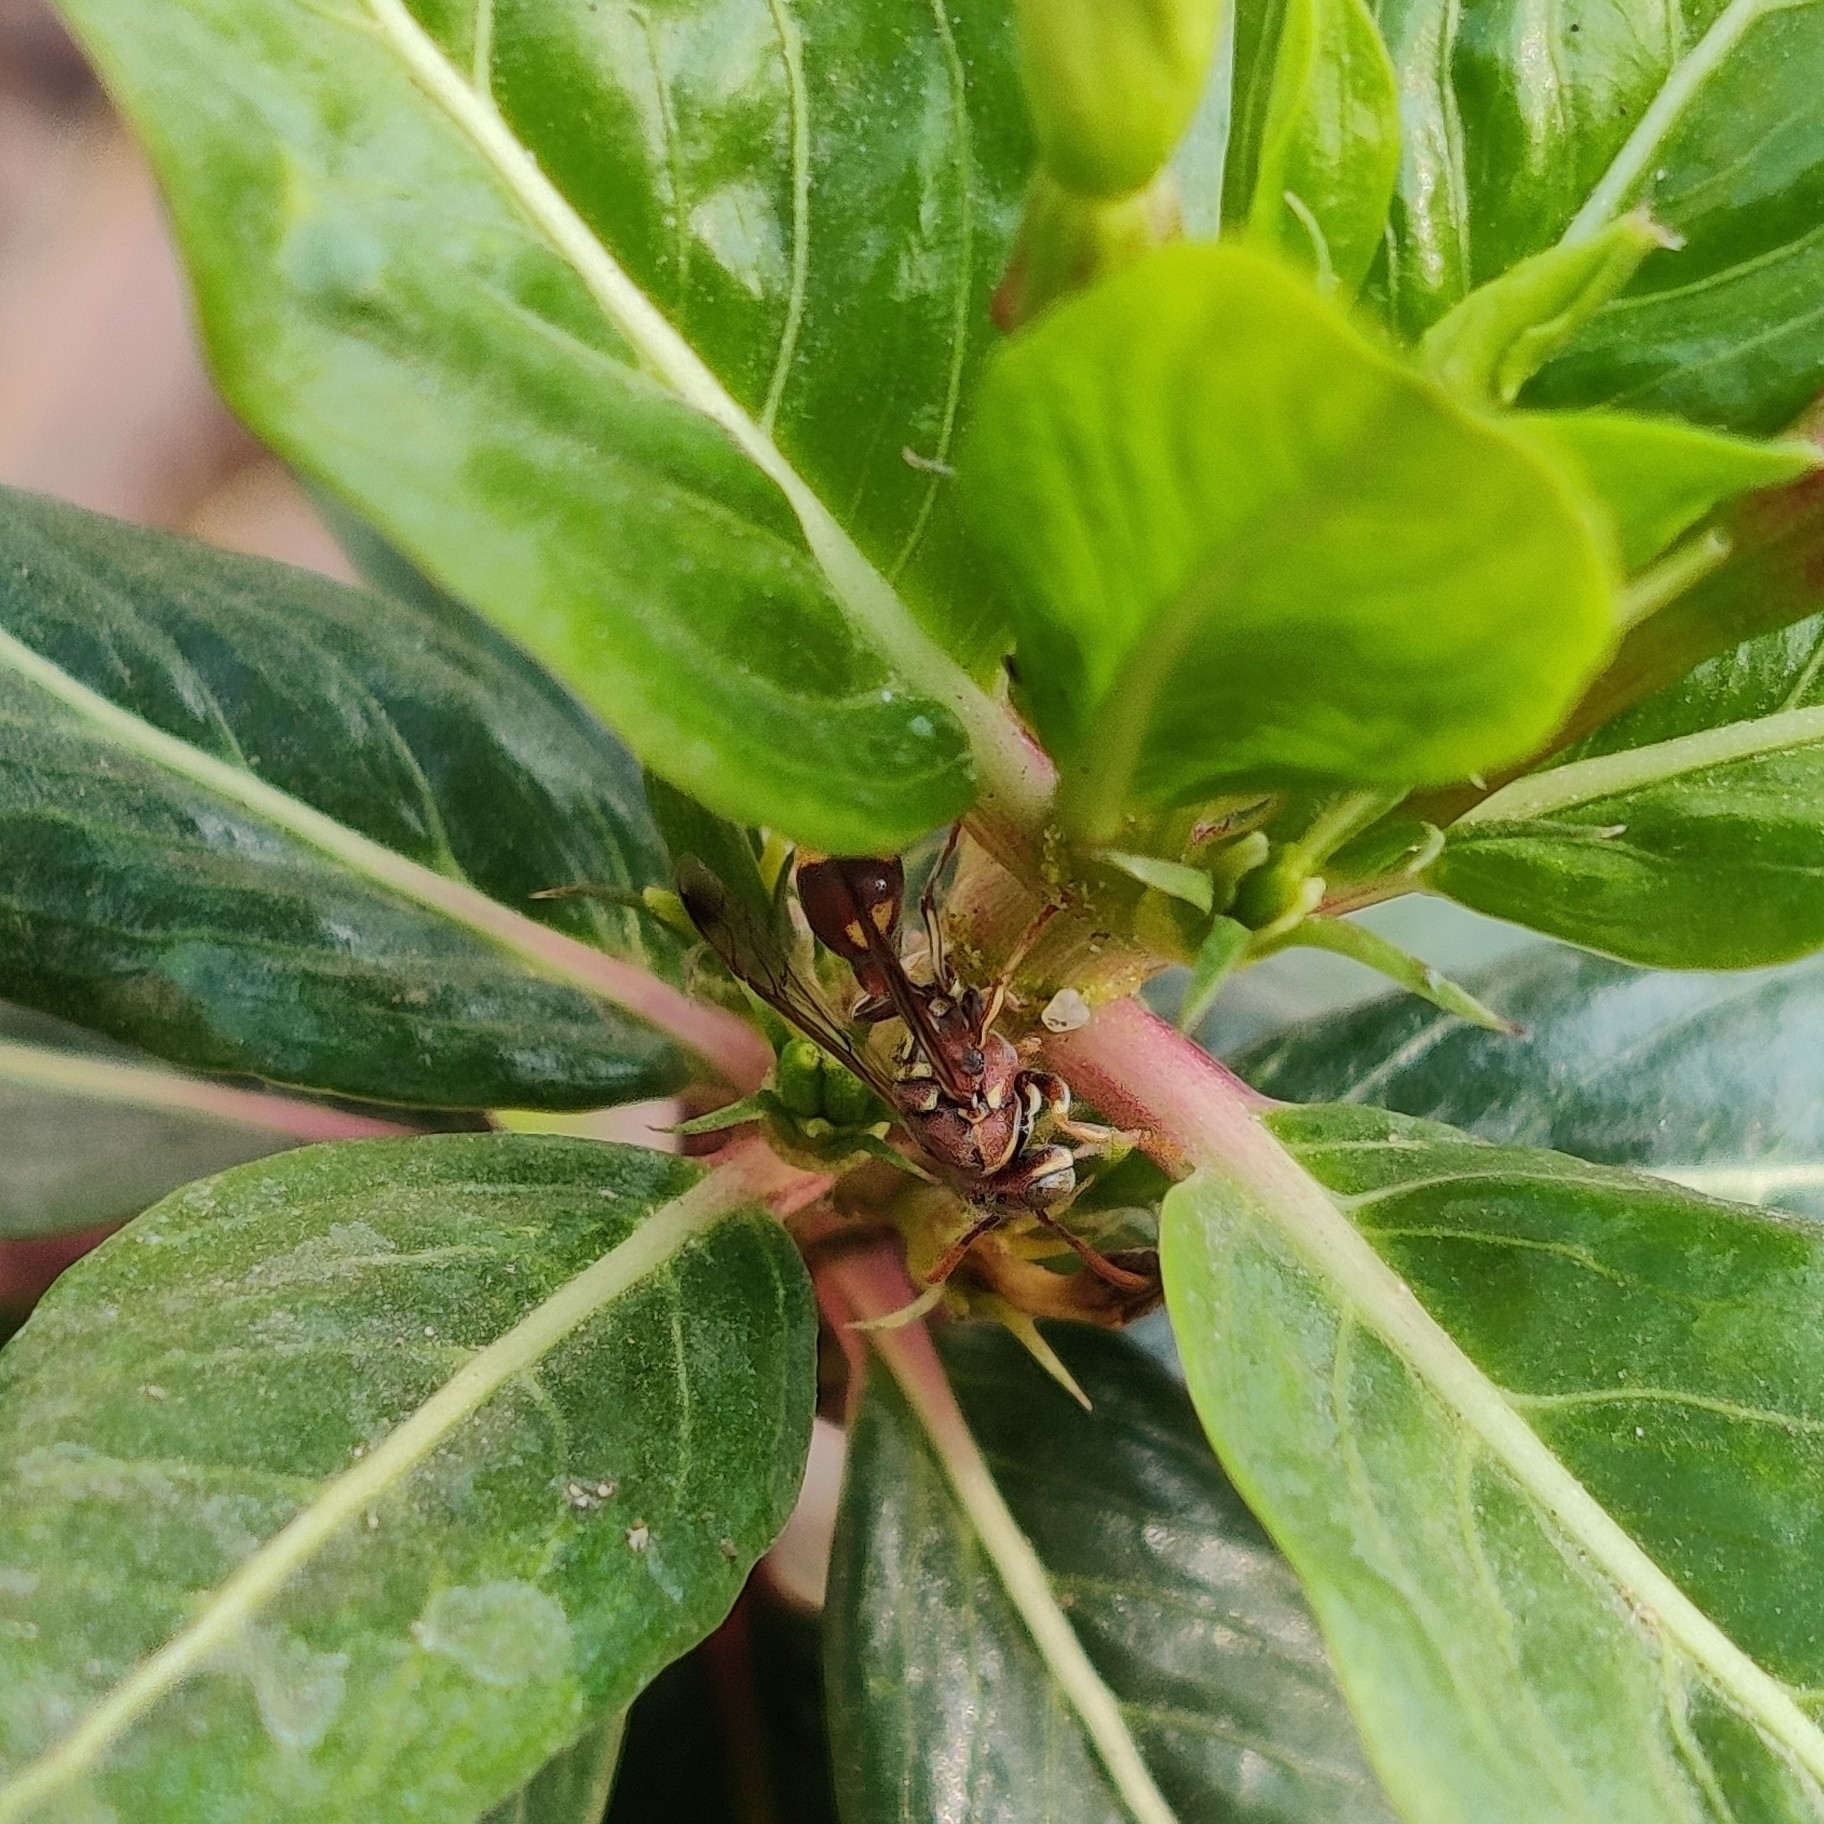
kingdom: Animalia
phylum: Arthropoda
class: Insecta
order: Hymenoptera
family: Vespidae
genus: Ropalidia
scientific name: Ropalidia variegata
